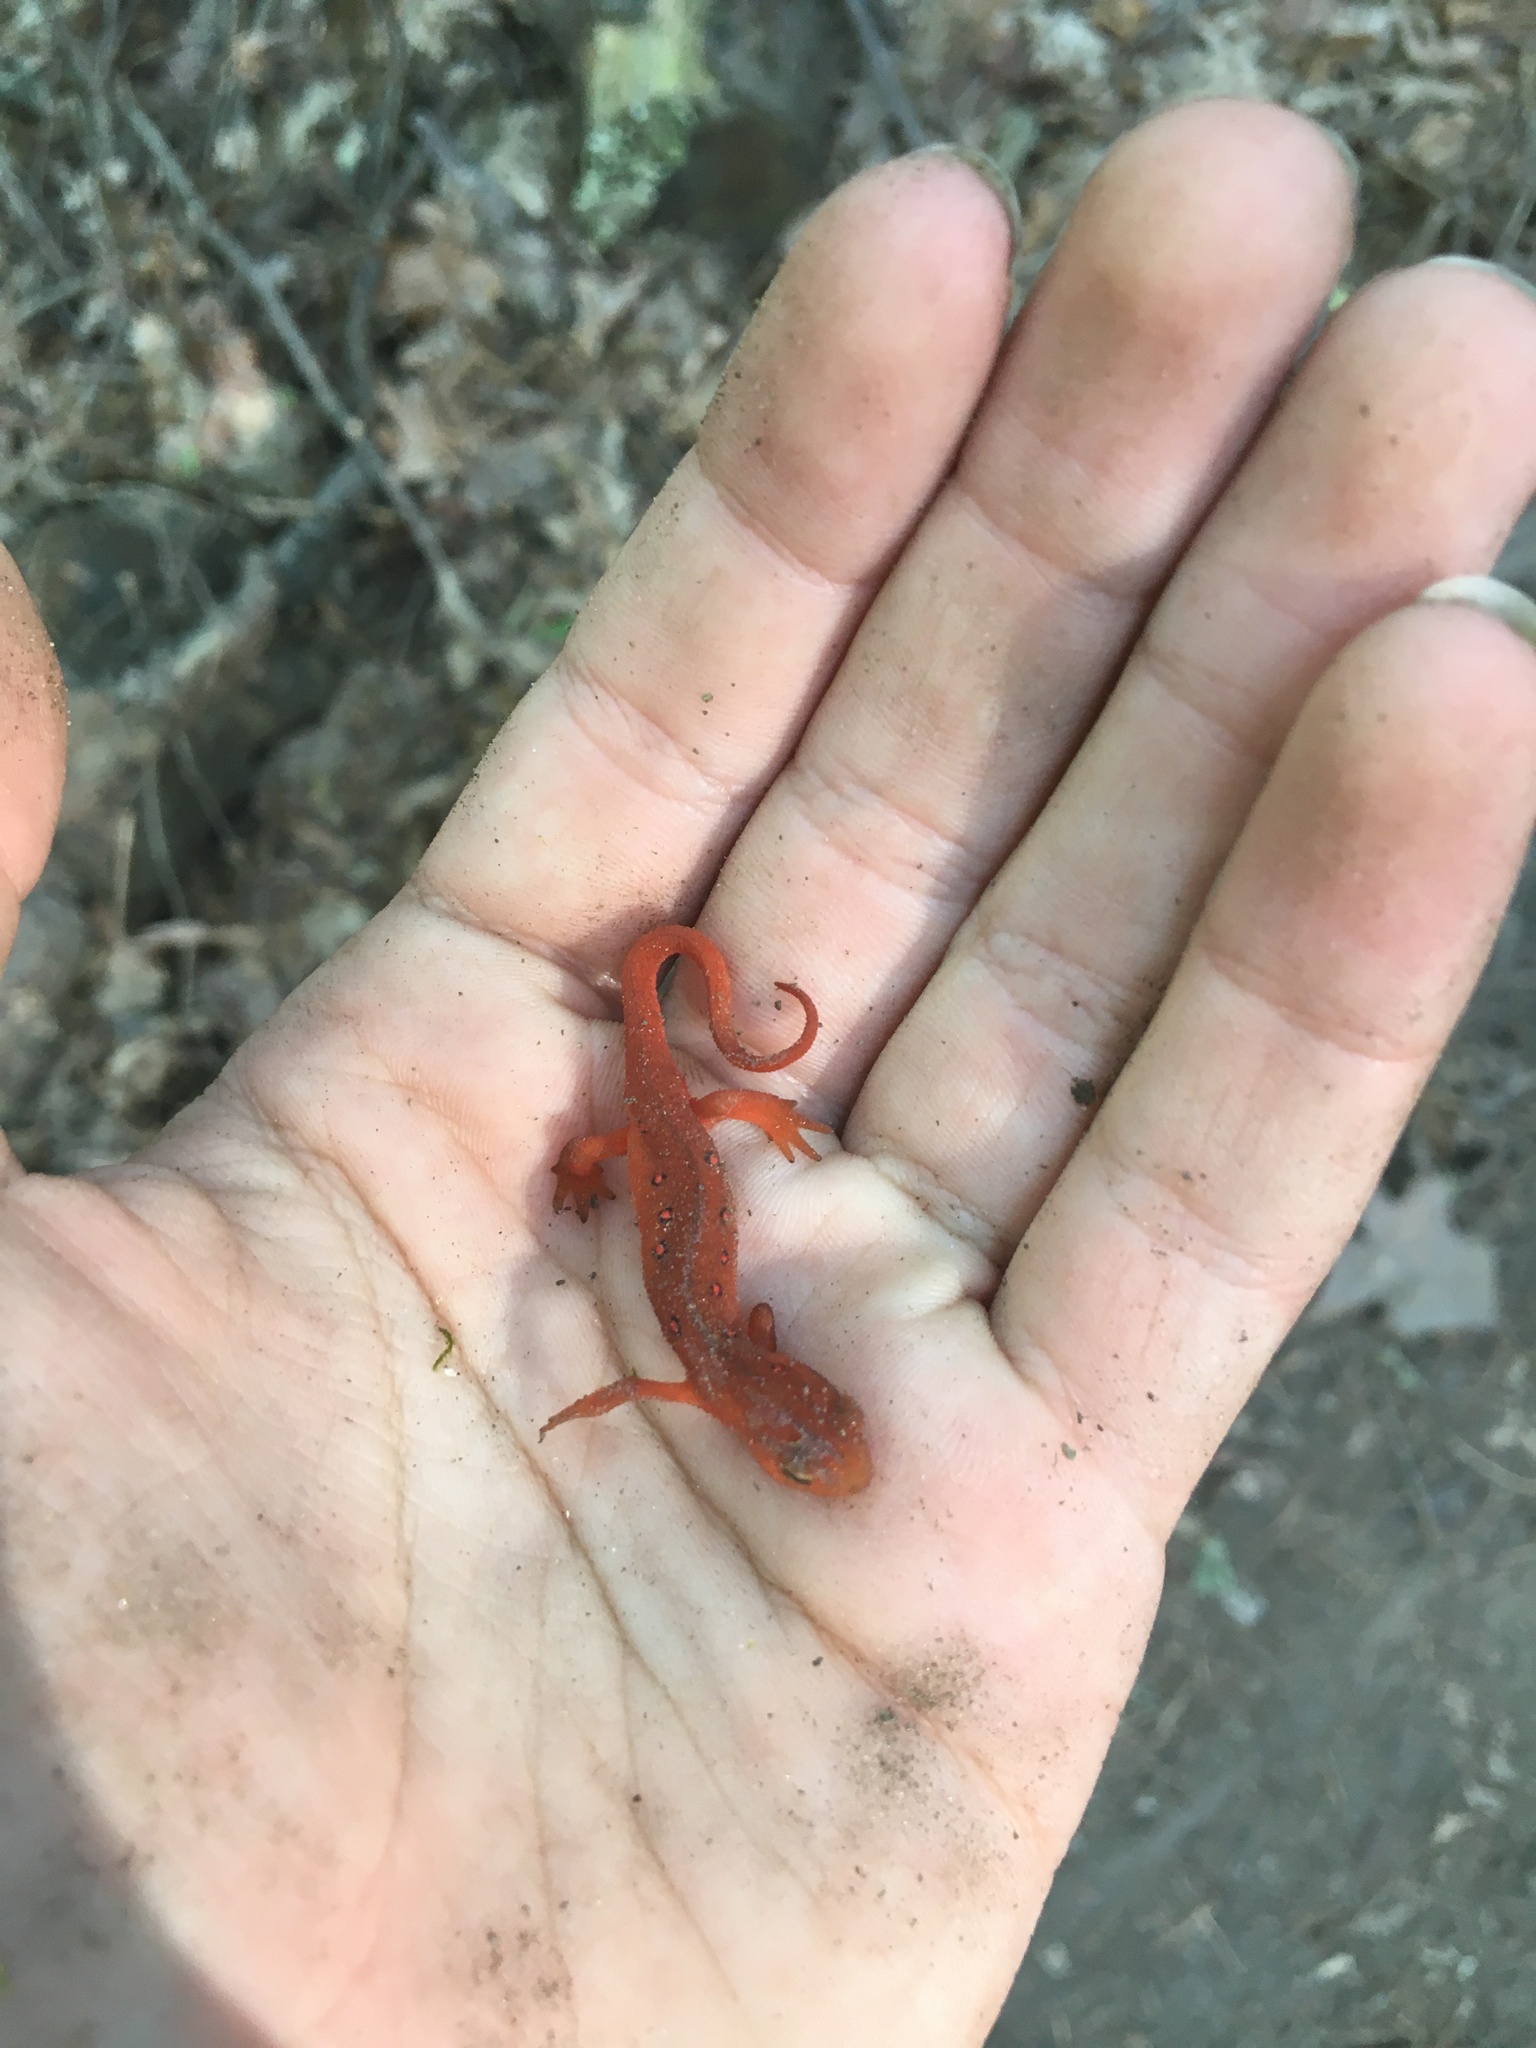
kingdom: Animalia
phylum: Chordata
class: Amphibia
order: Caudata
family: Salamandridae
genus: Notophthalmus
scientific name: Notophthalmus viridescens
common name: Eastern newt
